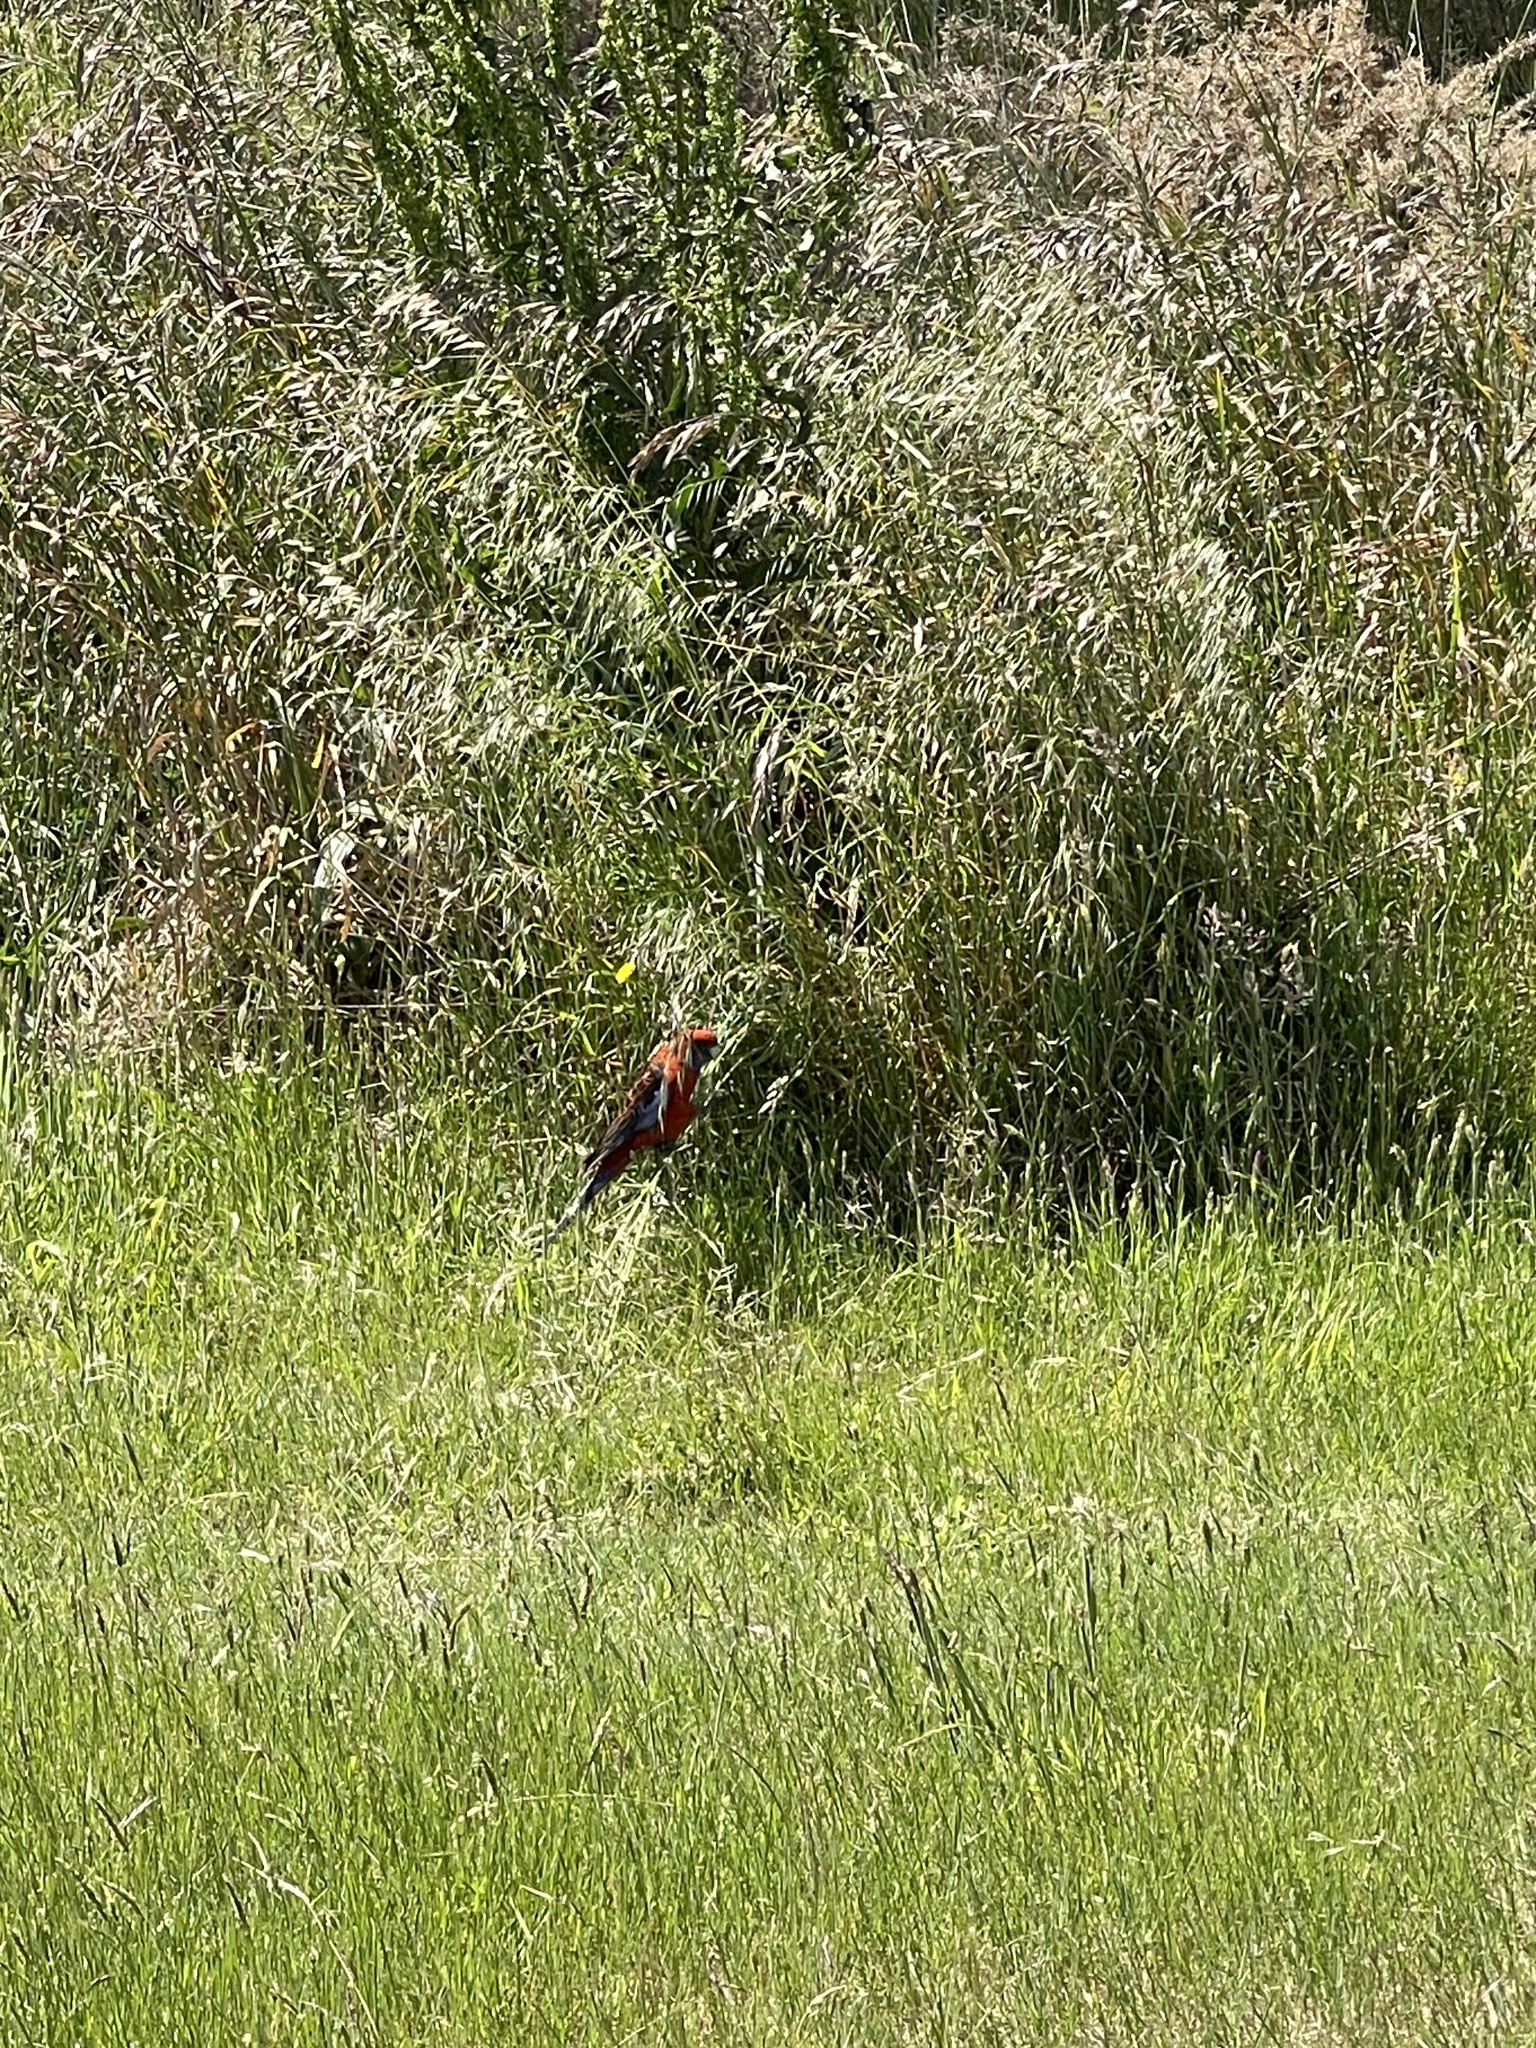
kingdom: Animalia
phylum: Chordata
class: Aves
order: Psittaciformes
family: Psittacidae
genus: Platycercus
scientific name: Platycercus elegans
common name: Crimson rosella
